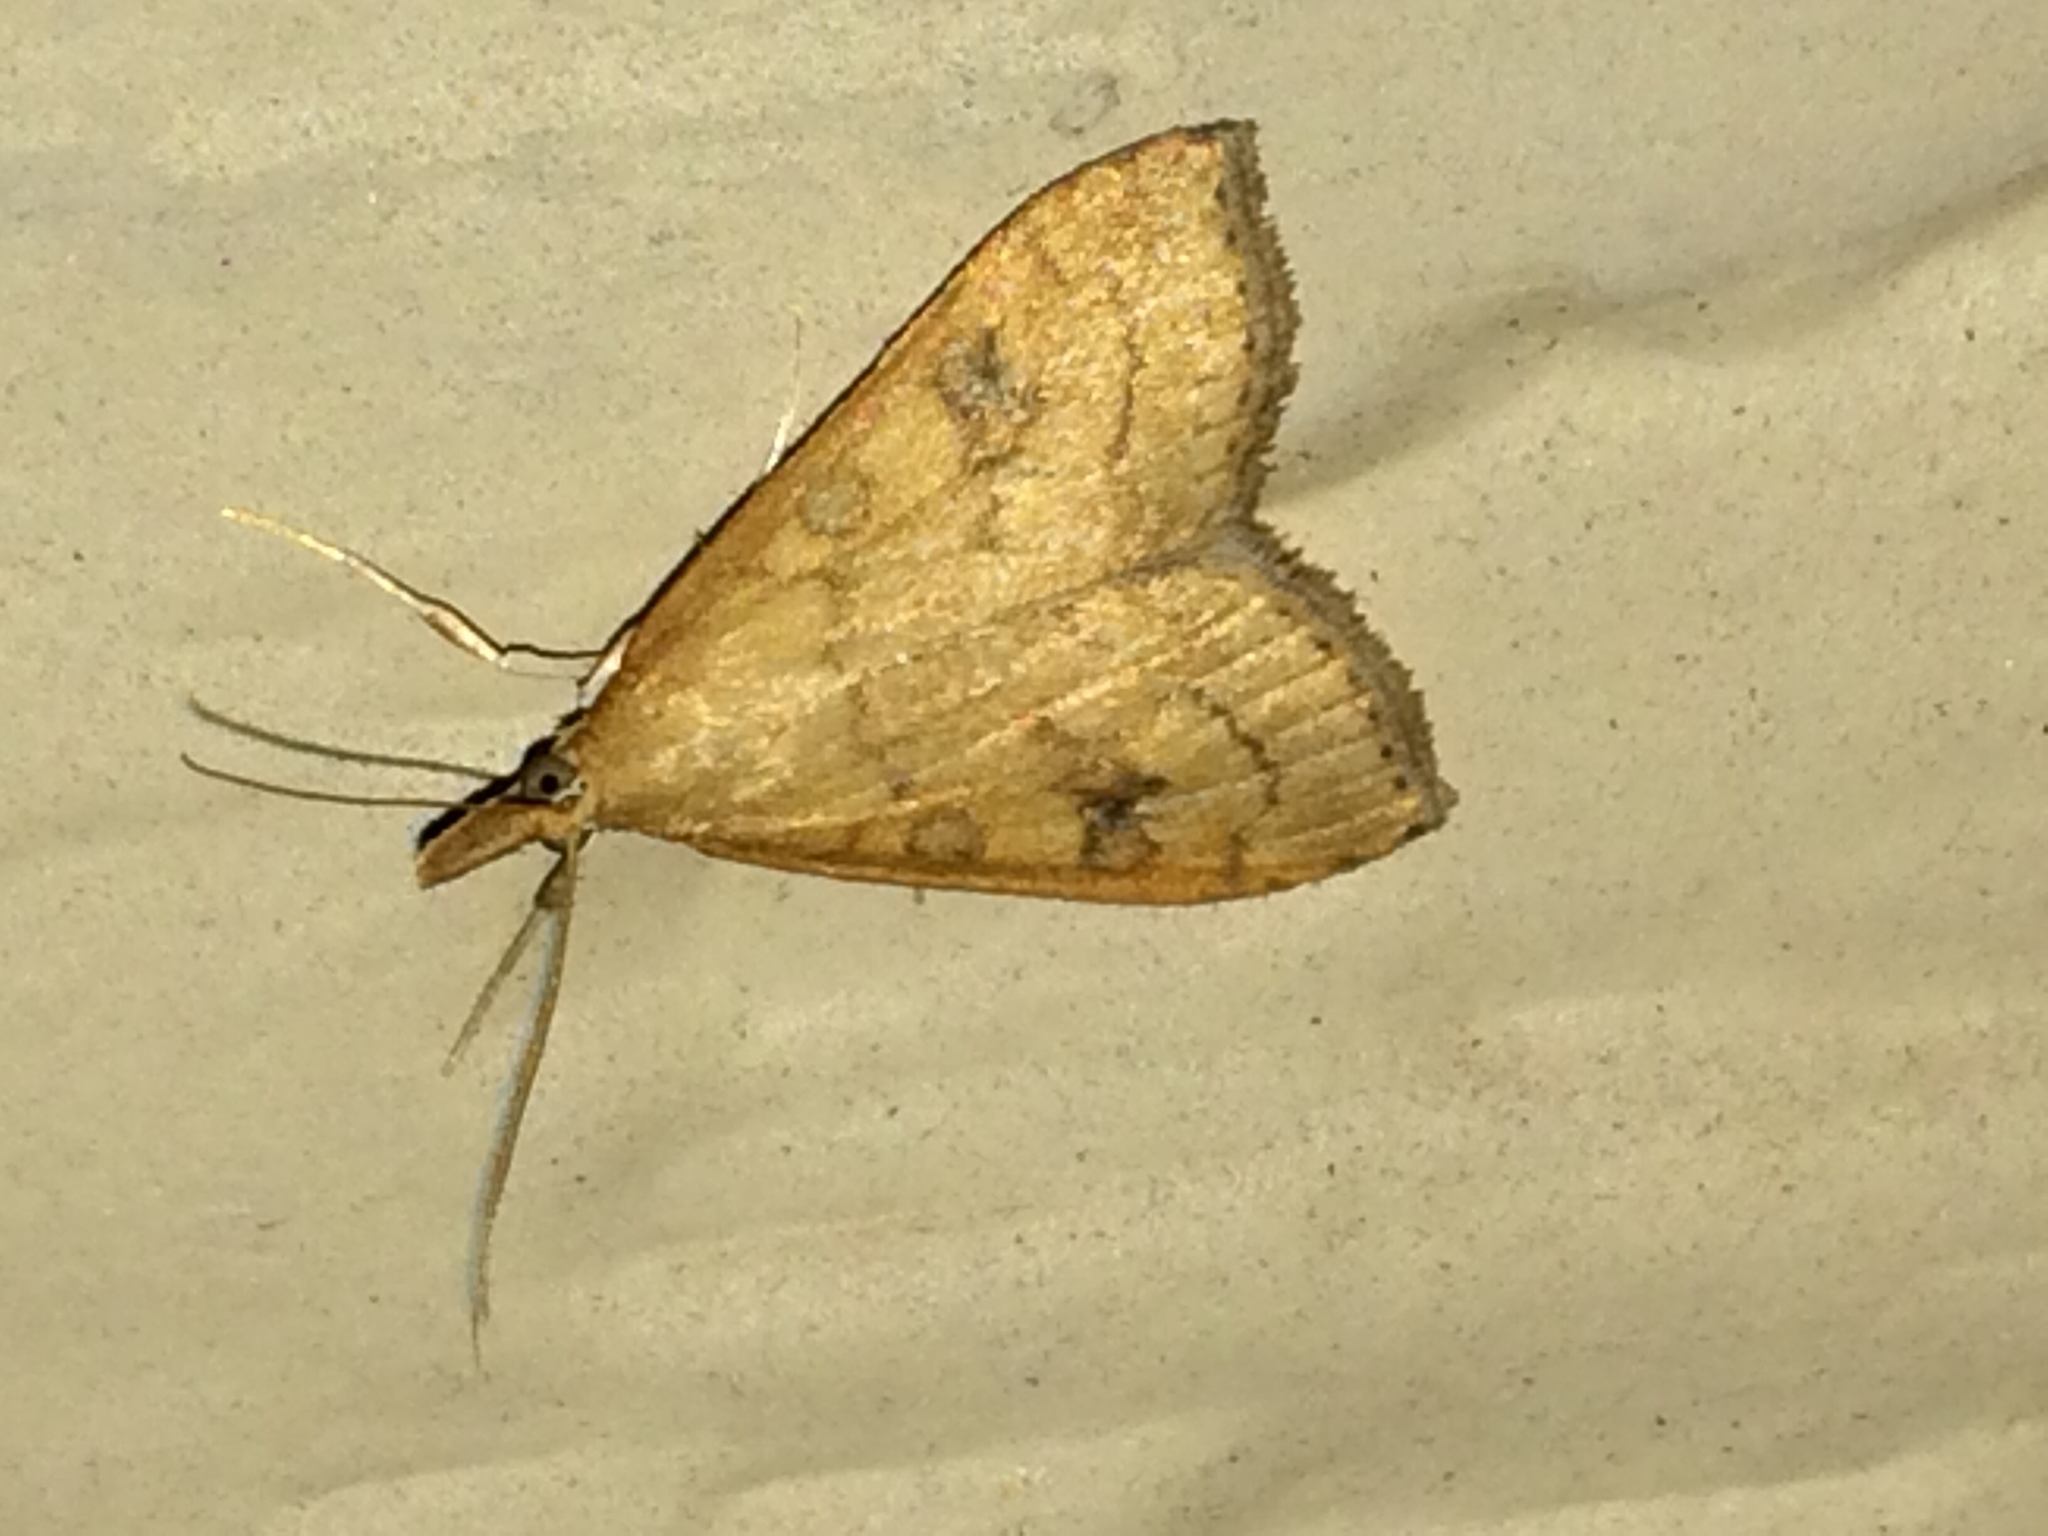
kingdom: Animalia
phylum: Arthropoda
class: Insecta
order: Lepidoptera
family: Crambidae
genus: Udea
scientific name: Udea rubigalis
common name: Celery leaftier moth
